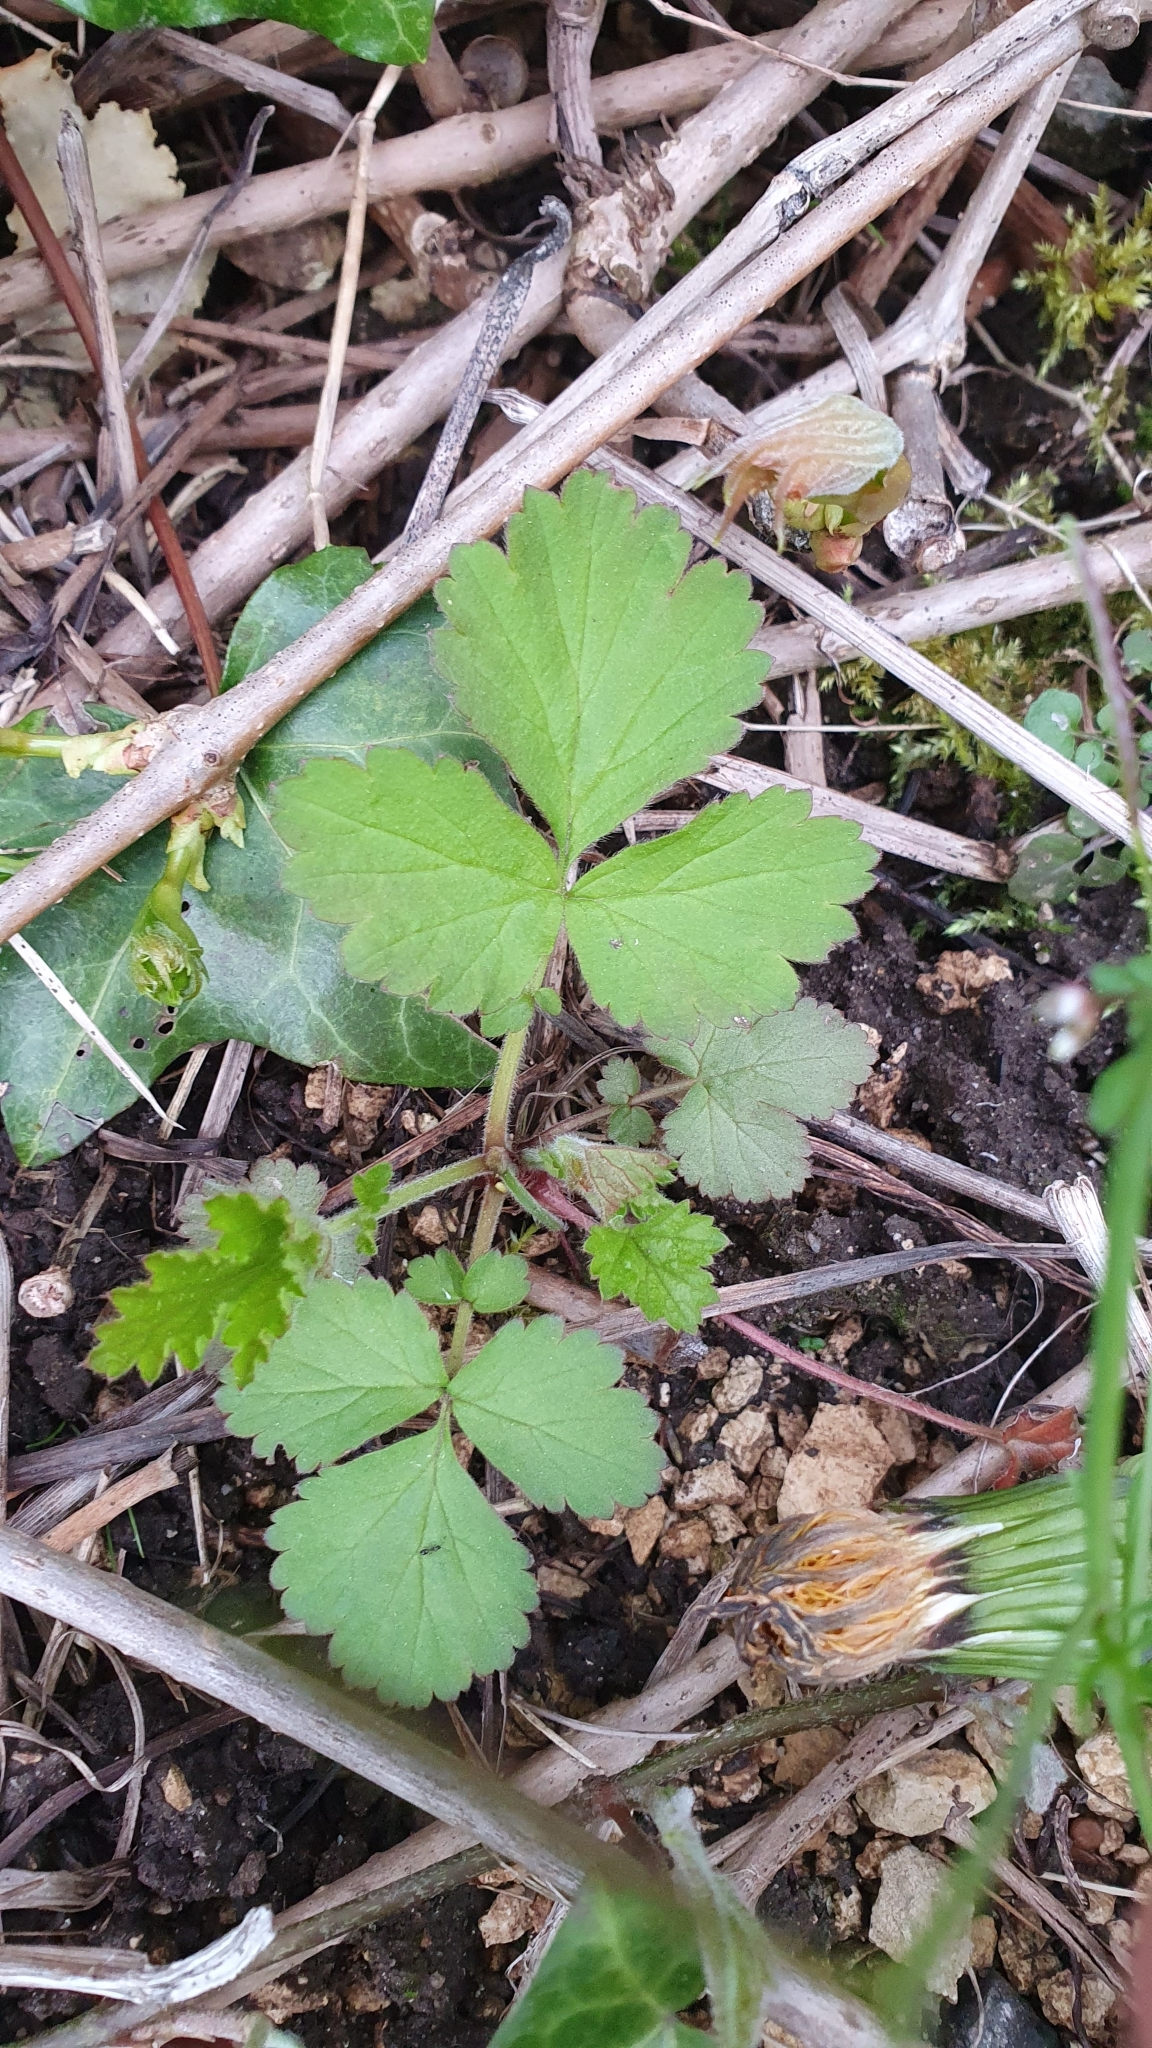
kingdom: Plantae
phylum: Tracheophyta
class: Magnoliopsida
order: Rosales
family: Rosaceae
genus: Geum
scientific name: Geum urbanum
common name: Wood avens
